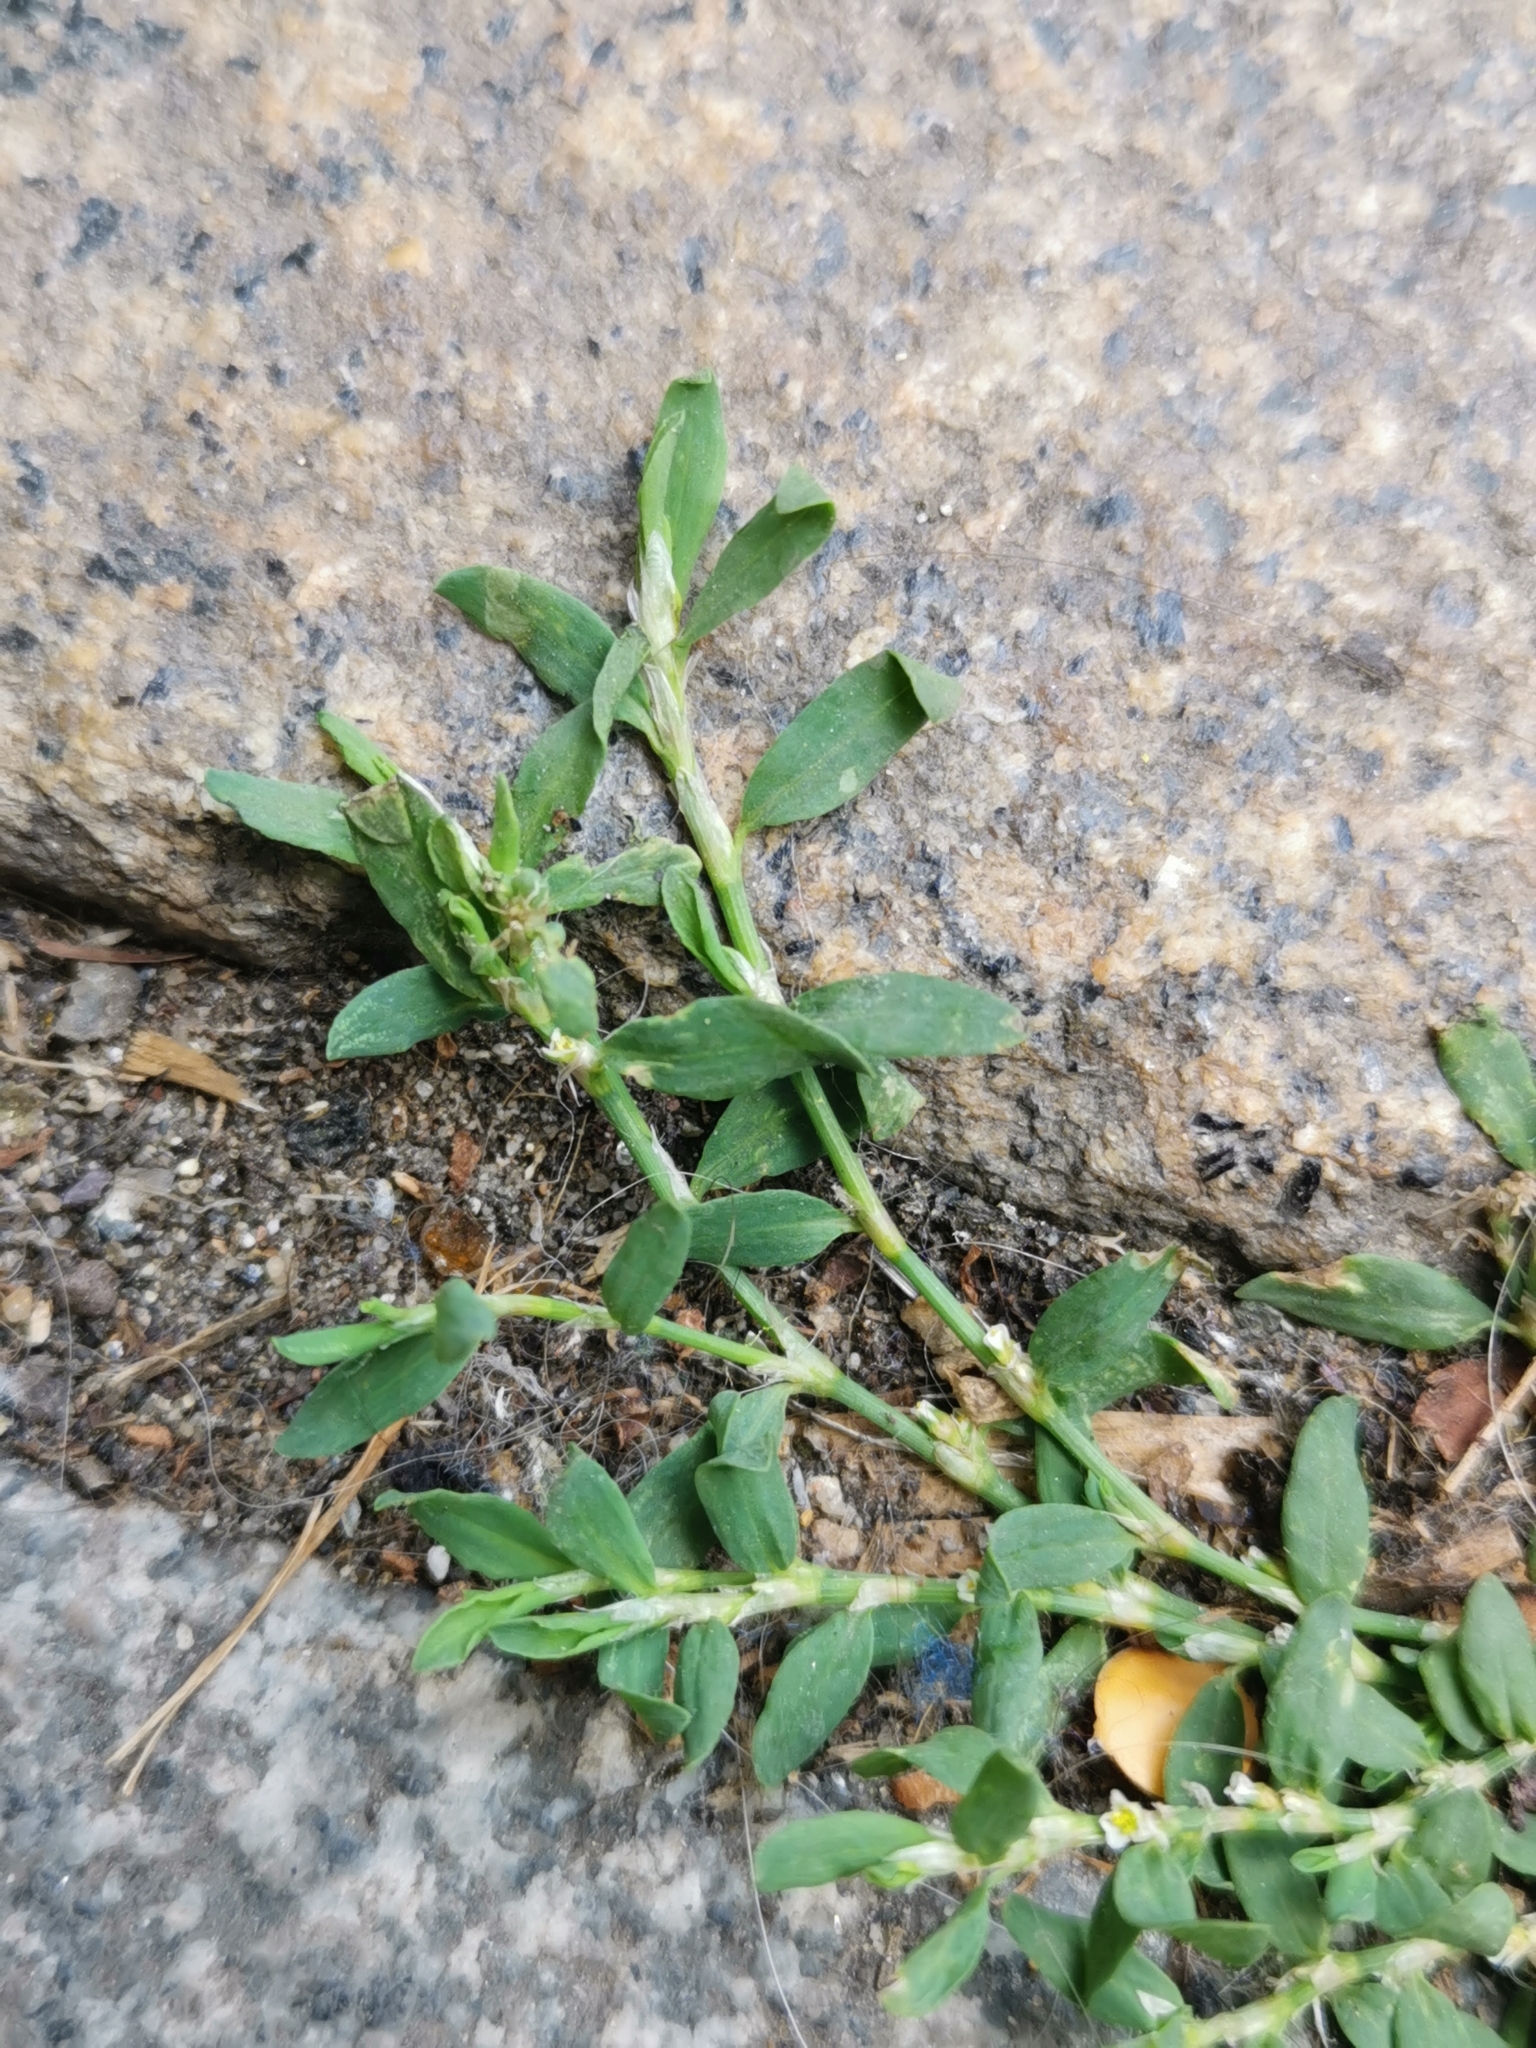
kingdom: Plantae
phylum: Tracheophyta
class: Magnoliopsida
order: Caryophyllales
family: Polygonaceae
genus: Polygonum
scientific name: Polygonum aviculare
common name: Prostrate knotweed
